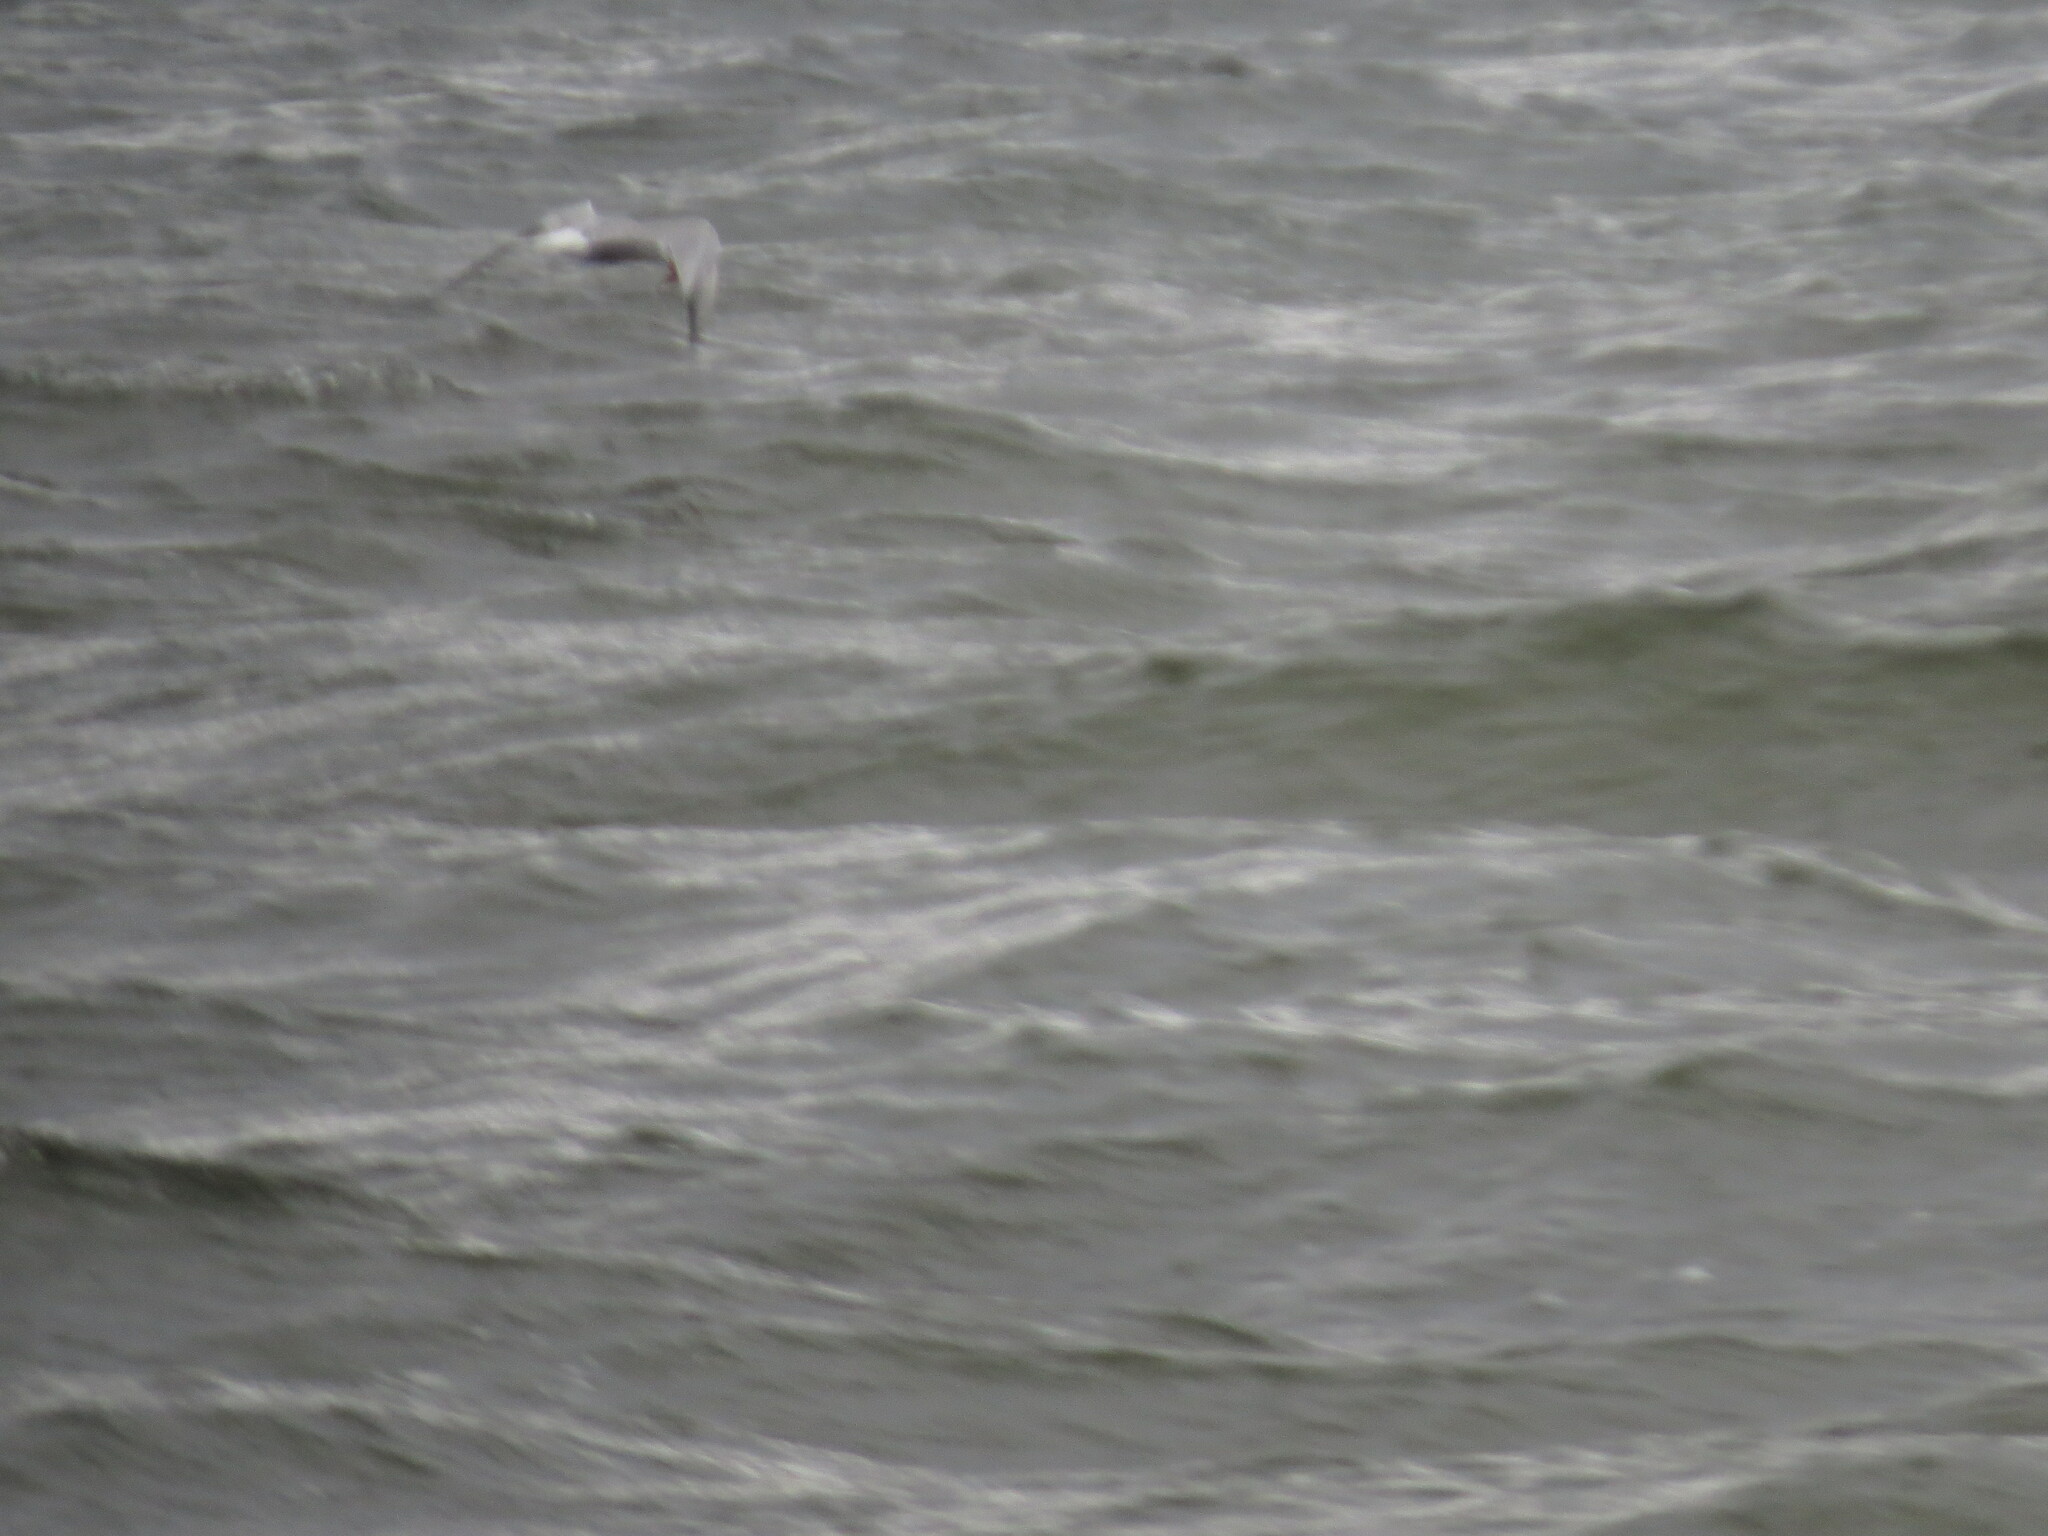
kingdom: Animalia
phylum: Chordata
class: Aves
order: Charadriiformes
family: Laridae
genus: Sterna
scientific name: Sterna hirundo
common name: Common tern
